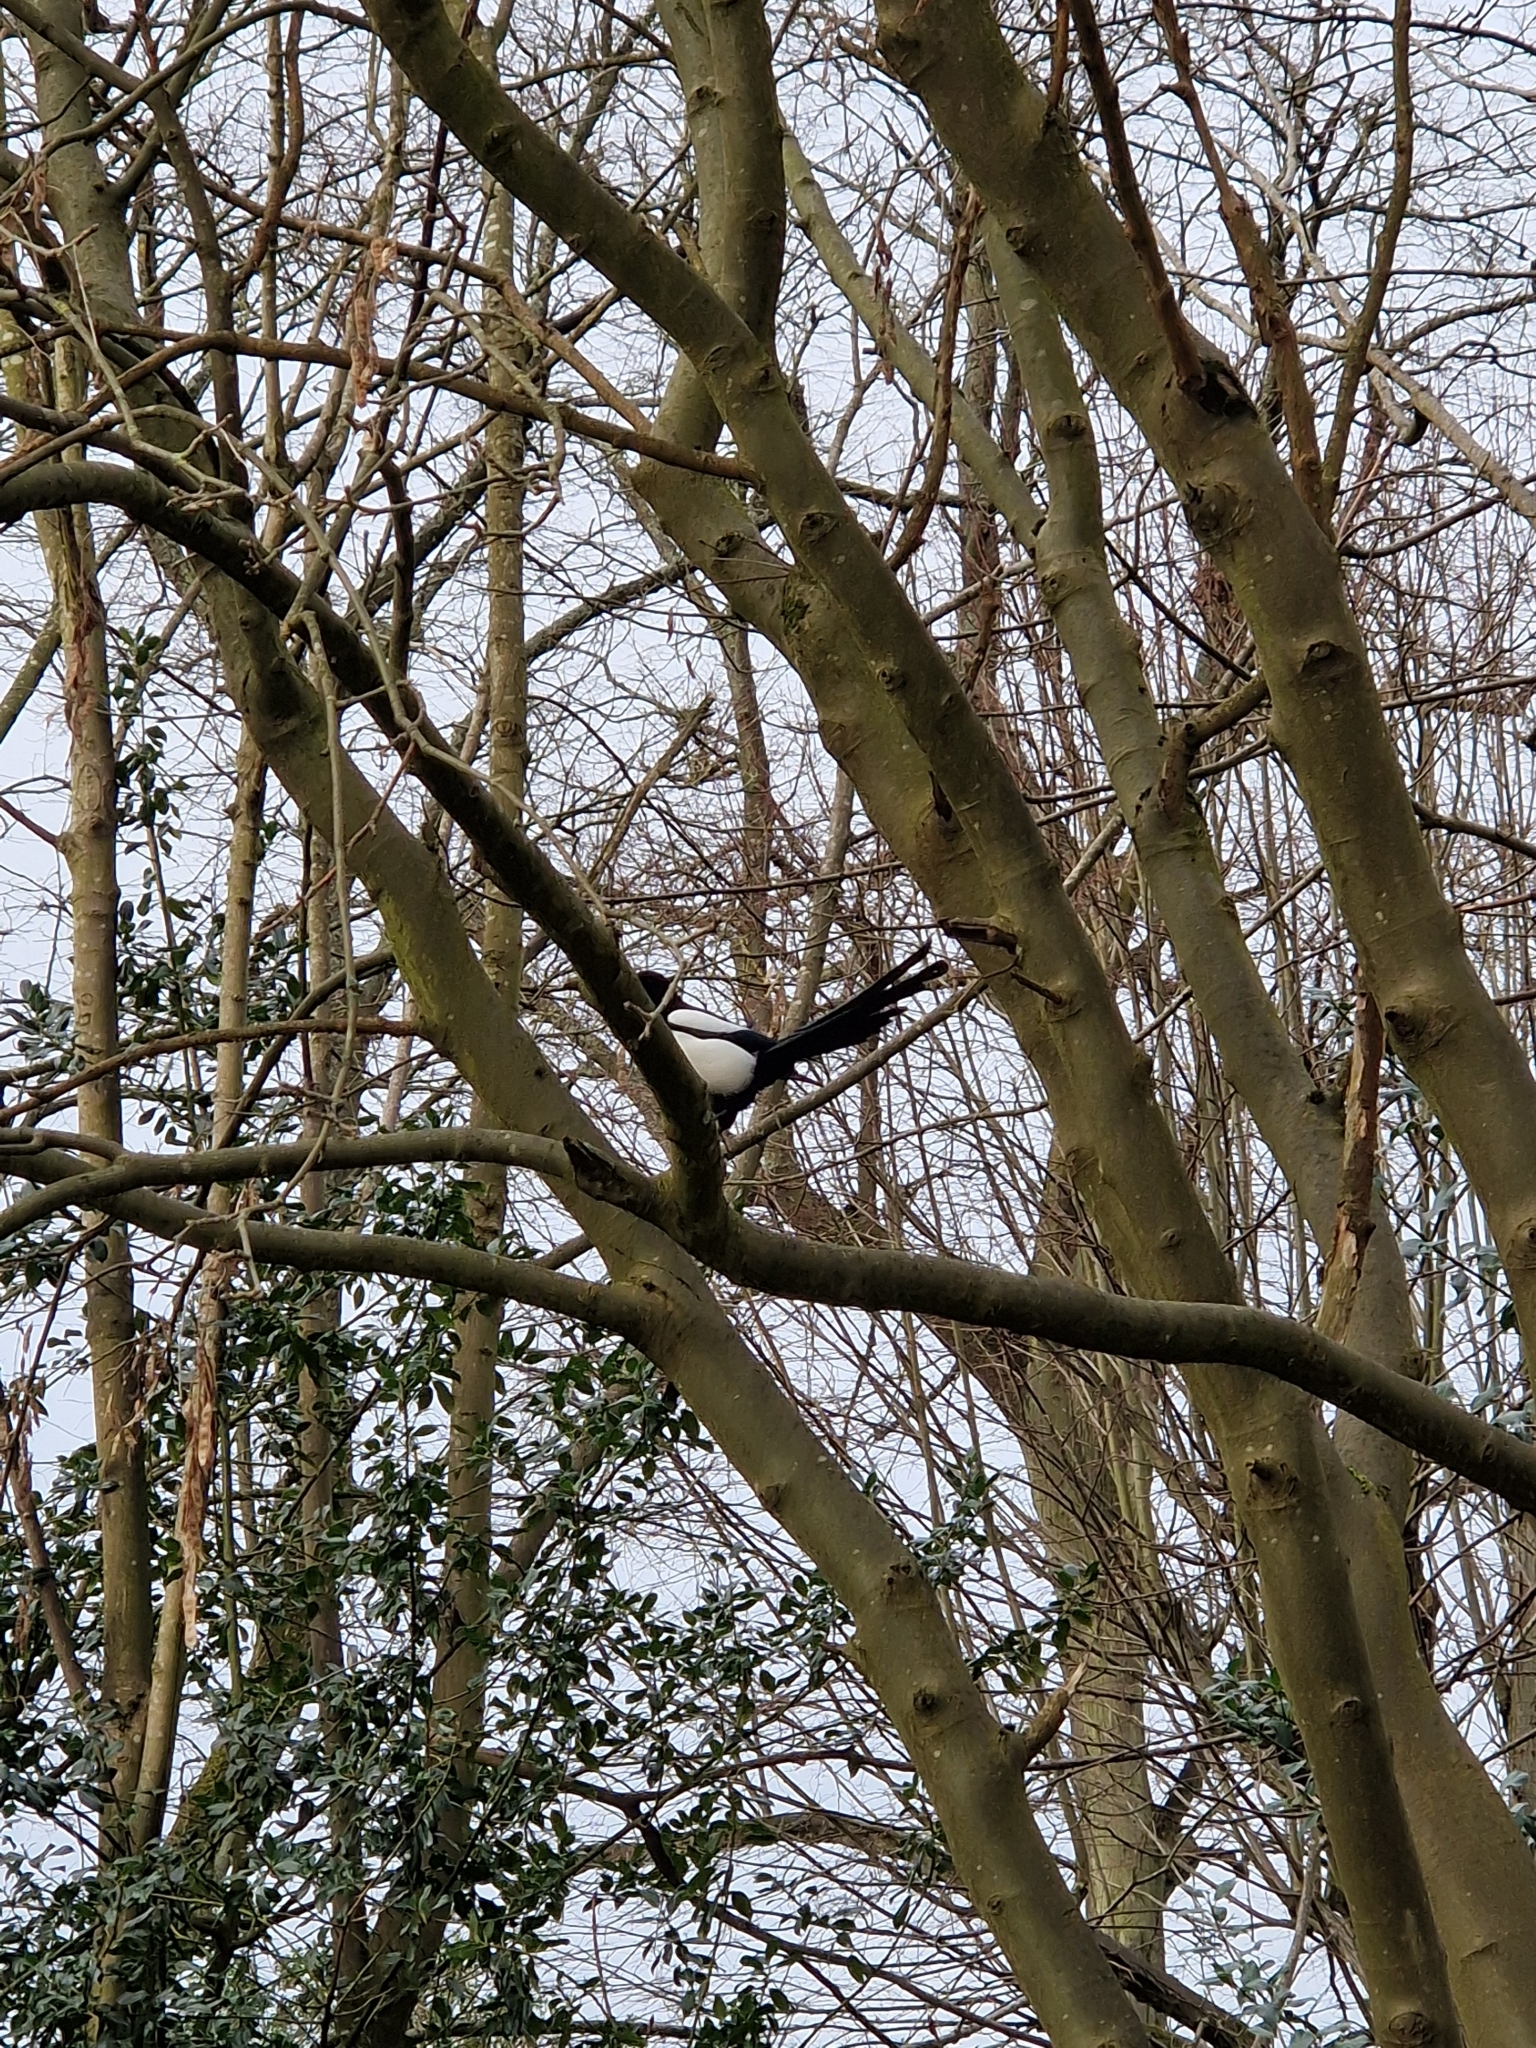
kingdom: Animalia
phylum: Chordata
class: Aves
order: Passeriformes
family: Corvidae
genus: Pica
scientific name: Pica pica
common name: Eurasian magpie
